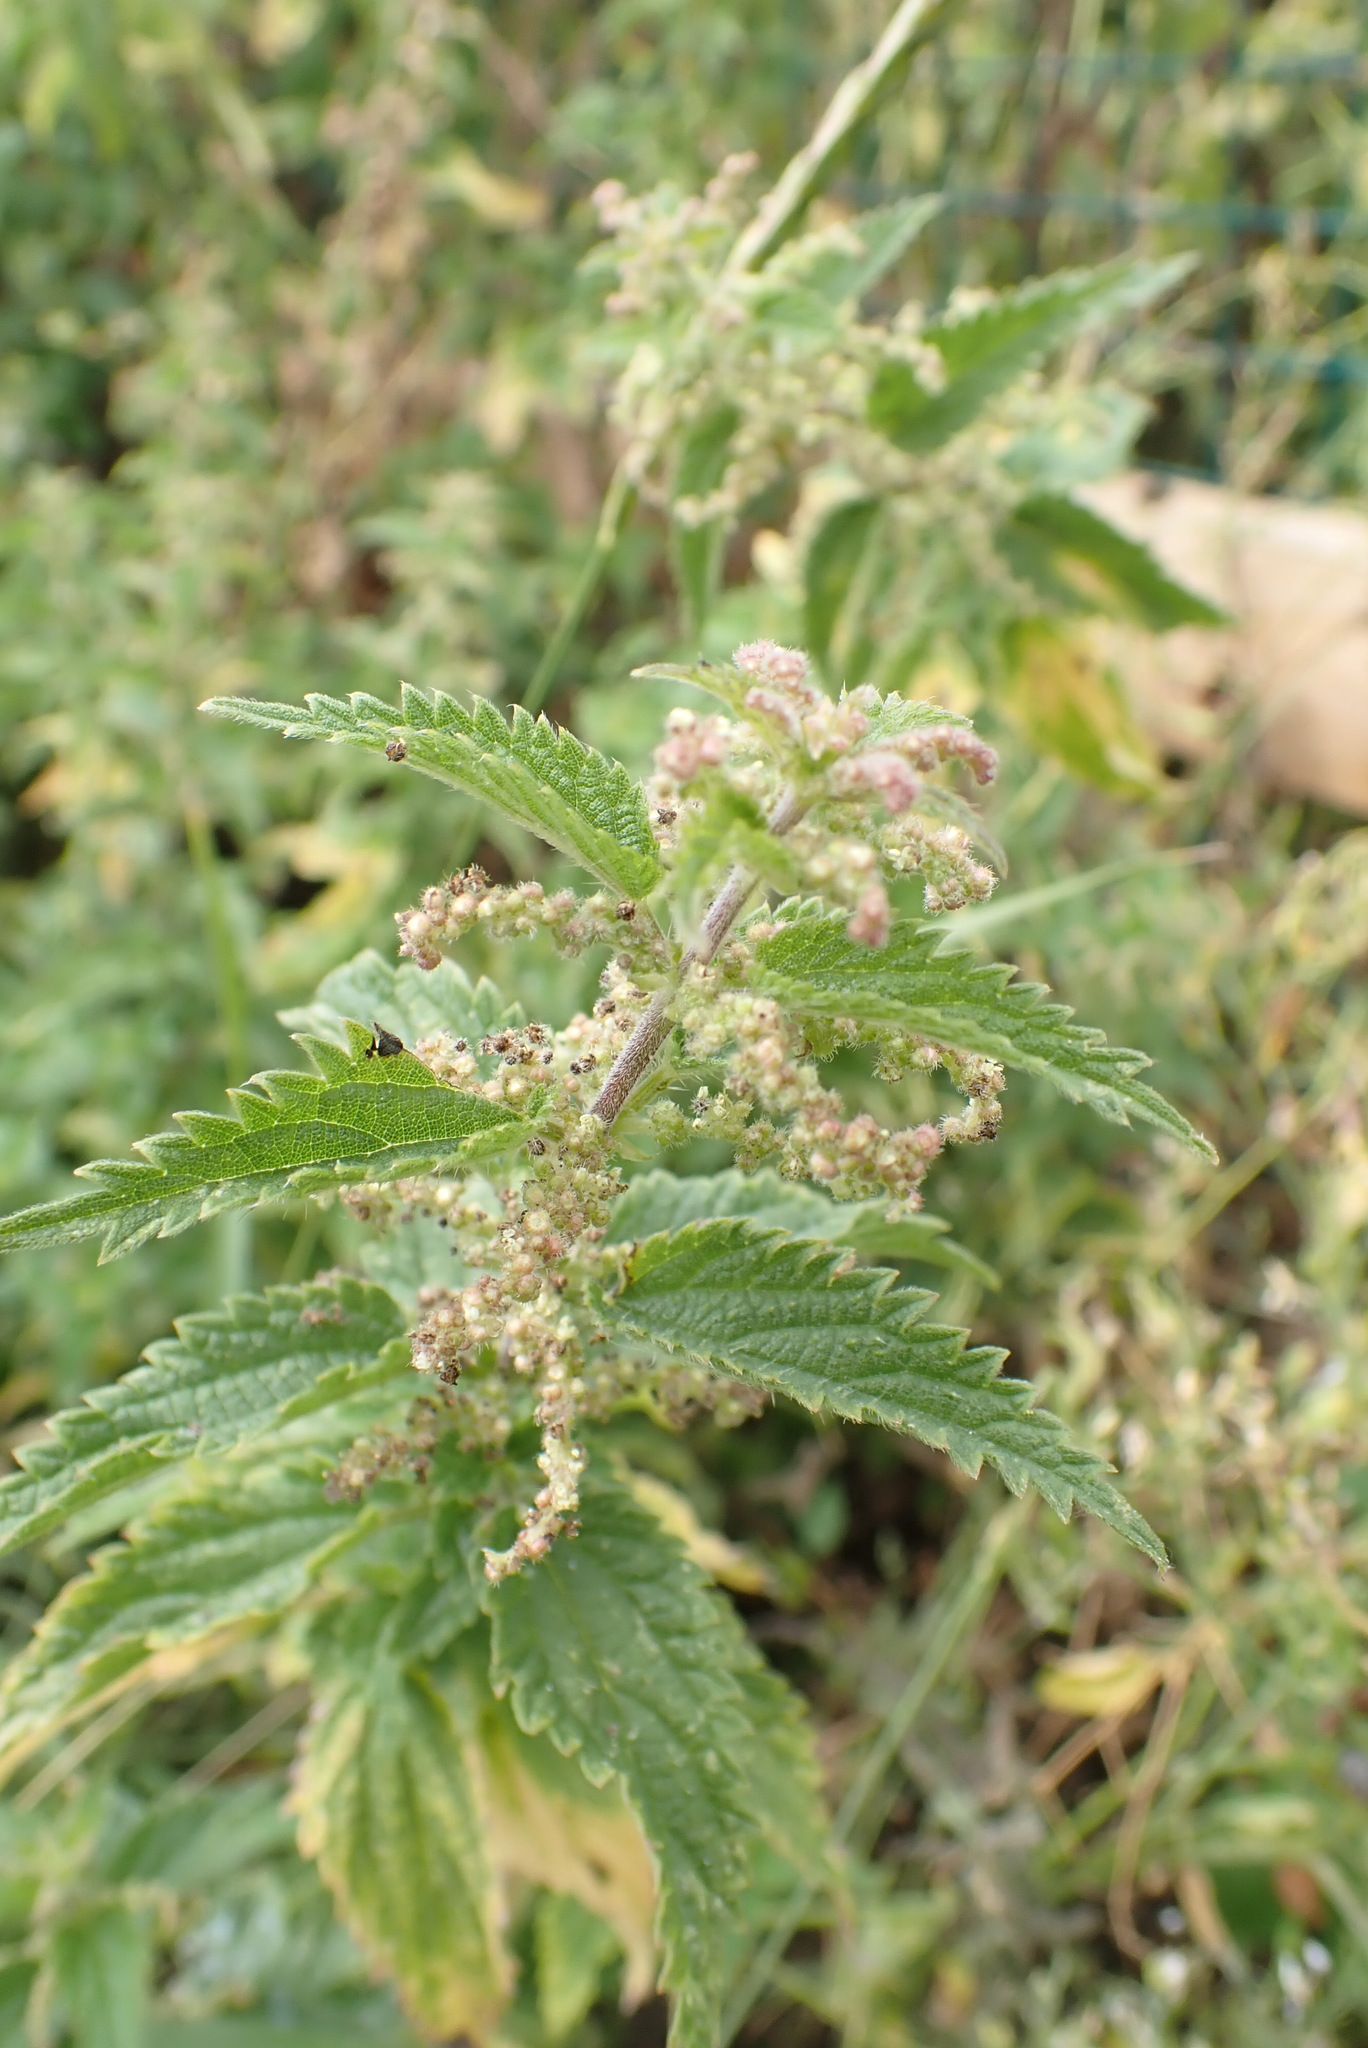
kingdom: Plantae
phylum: Tracheophyta
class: Magnoliopsida
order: Rosales
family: Urticaceae
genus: Urtica
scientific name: Urtica dioica
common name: Common nettle
